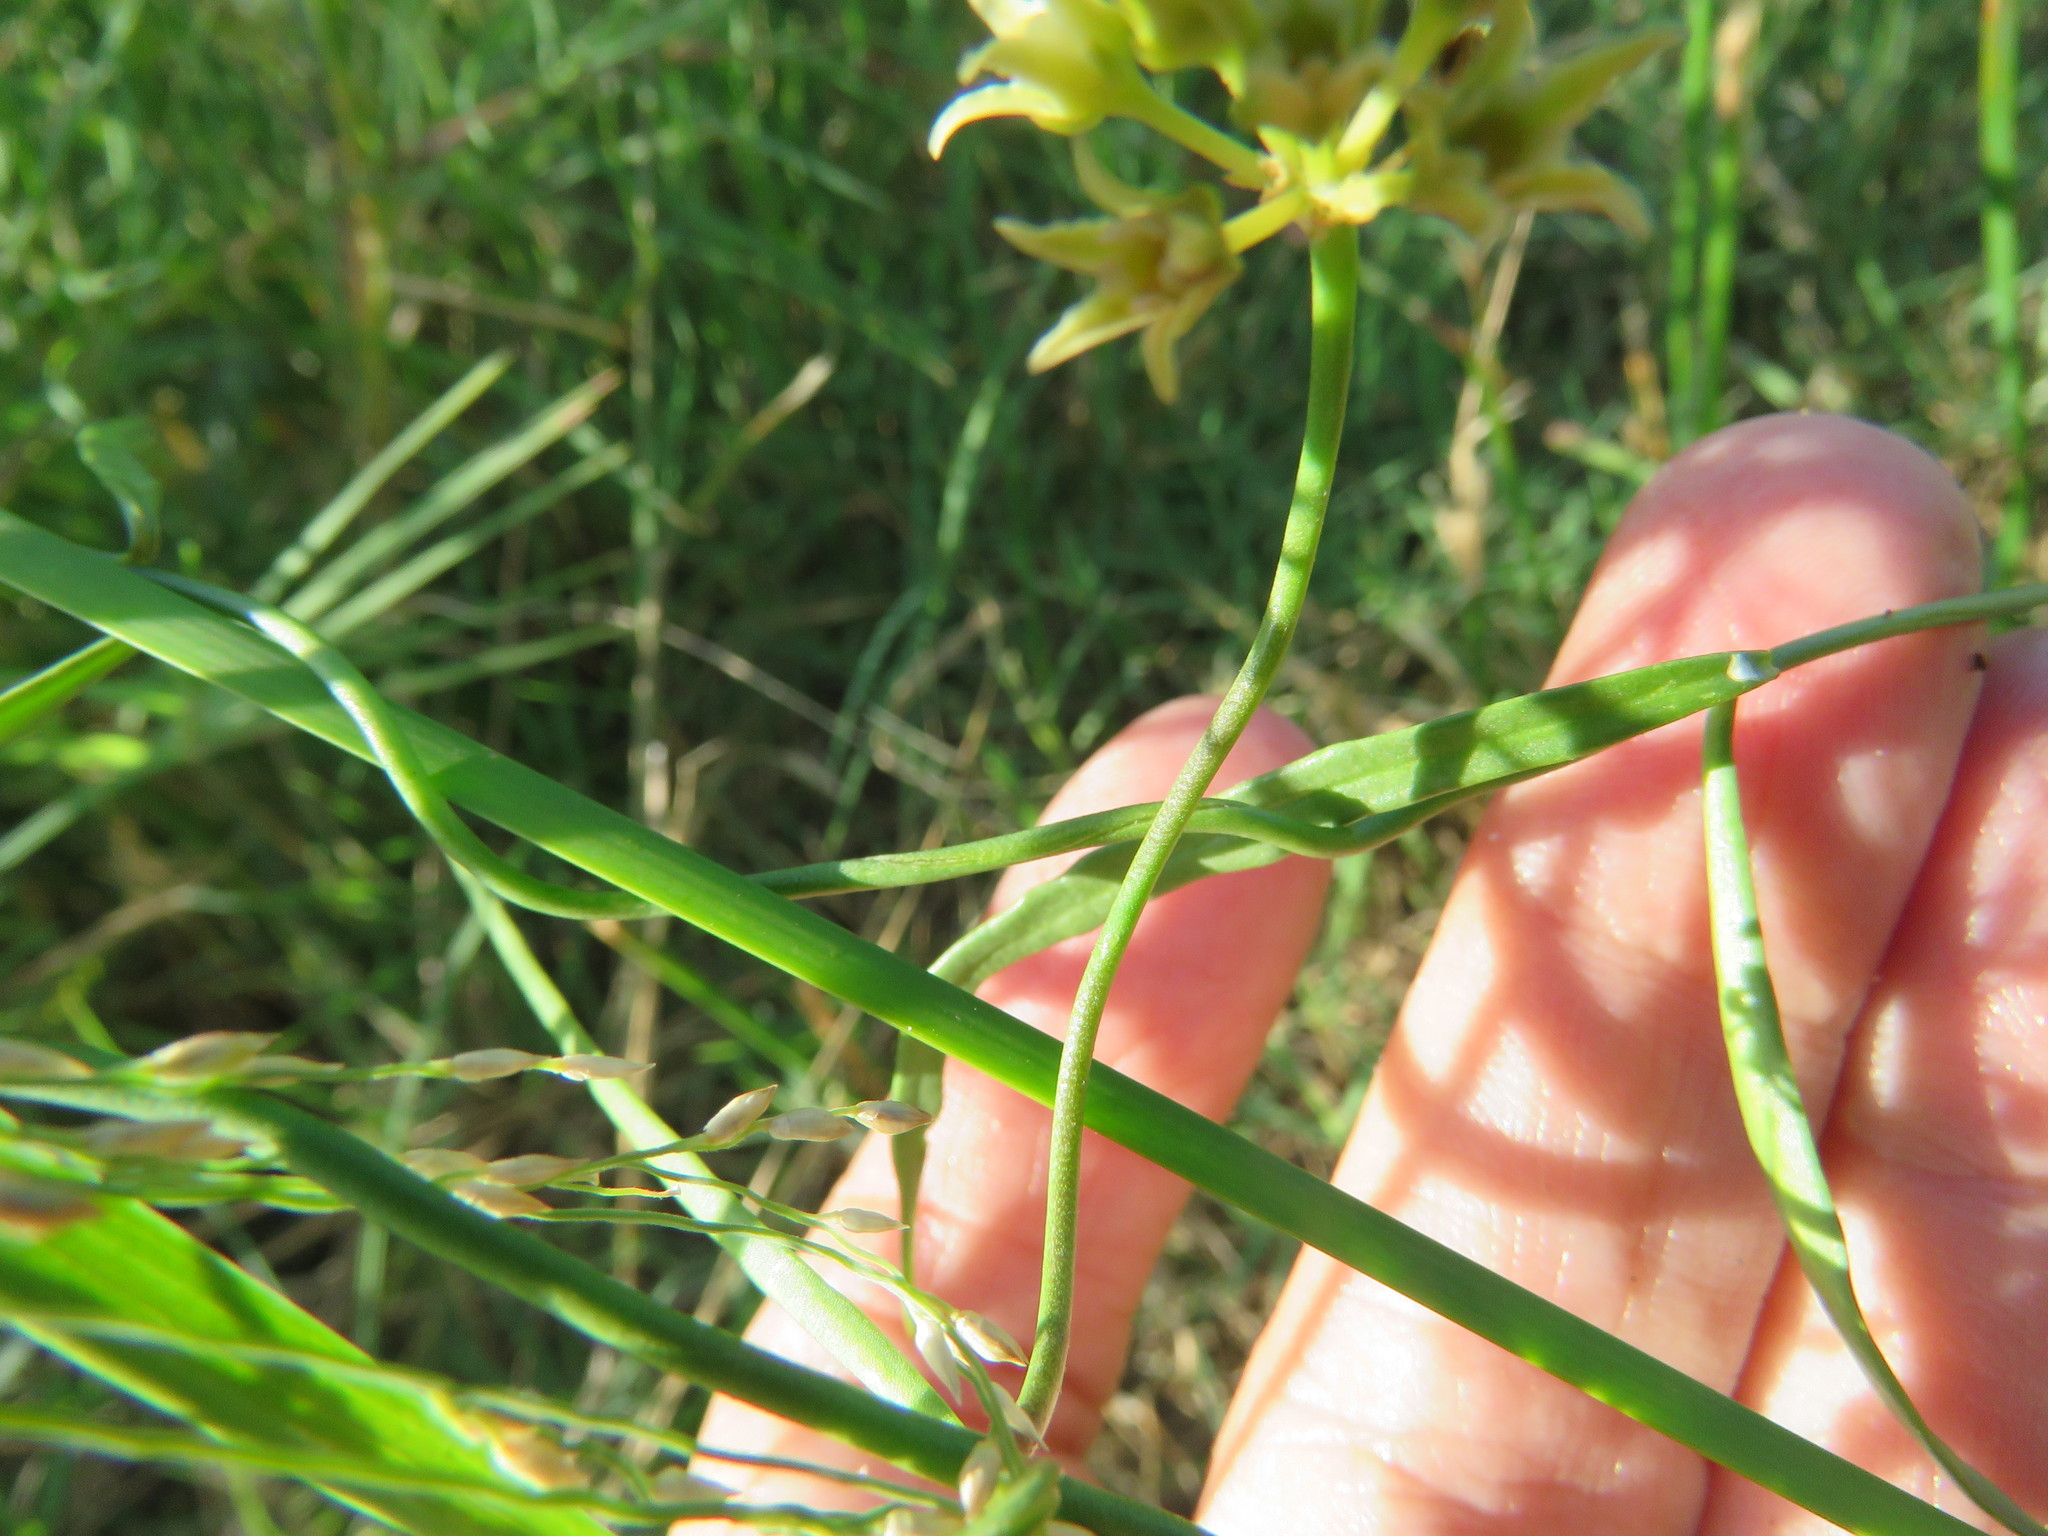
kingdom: Plantae
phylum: Tracheophyta
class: Magnoliopsida
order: Gentianales
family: Apocynaceae
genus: Pattalias
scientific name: Pattalias
